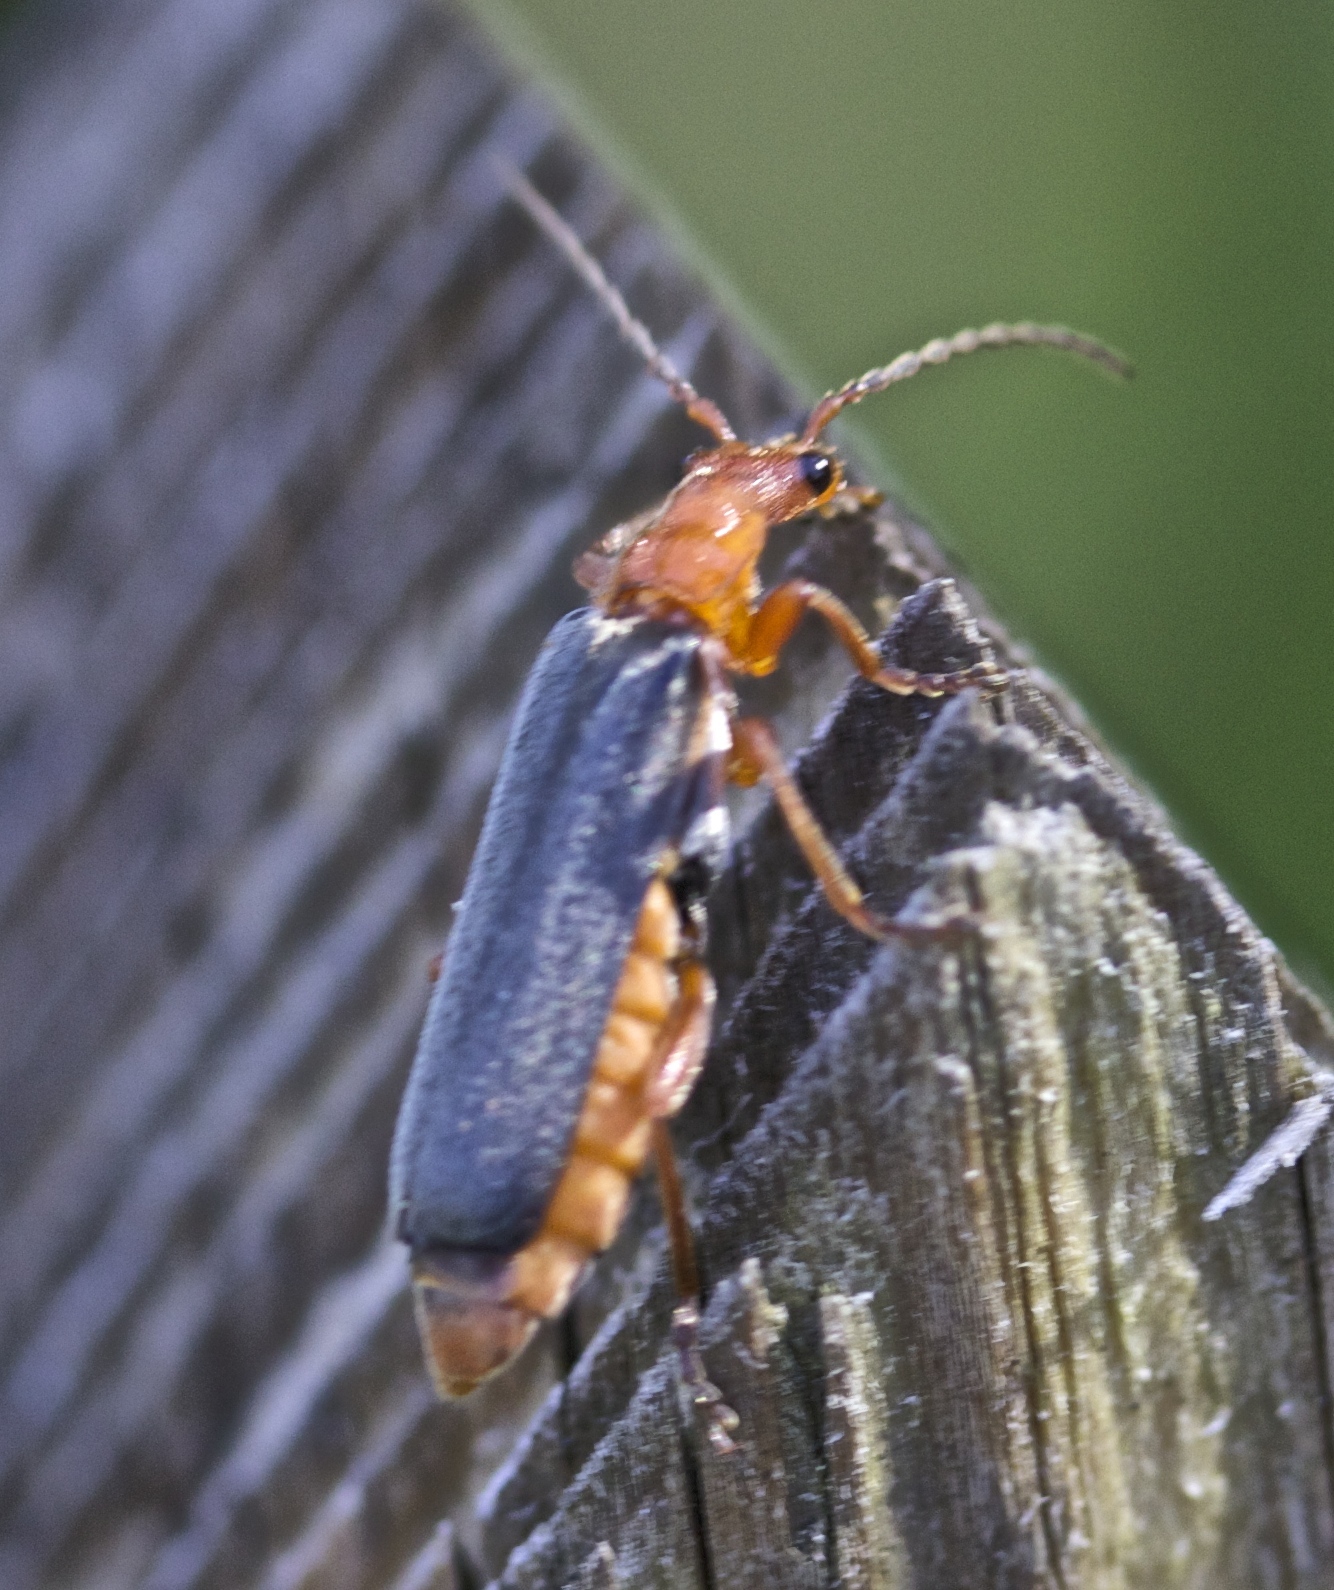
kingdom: Animalia
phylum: Arthropoda
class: Insecta
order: Coleoptera
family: Cantharidae
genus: Podabrus
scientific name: Podabrus pruinosus
